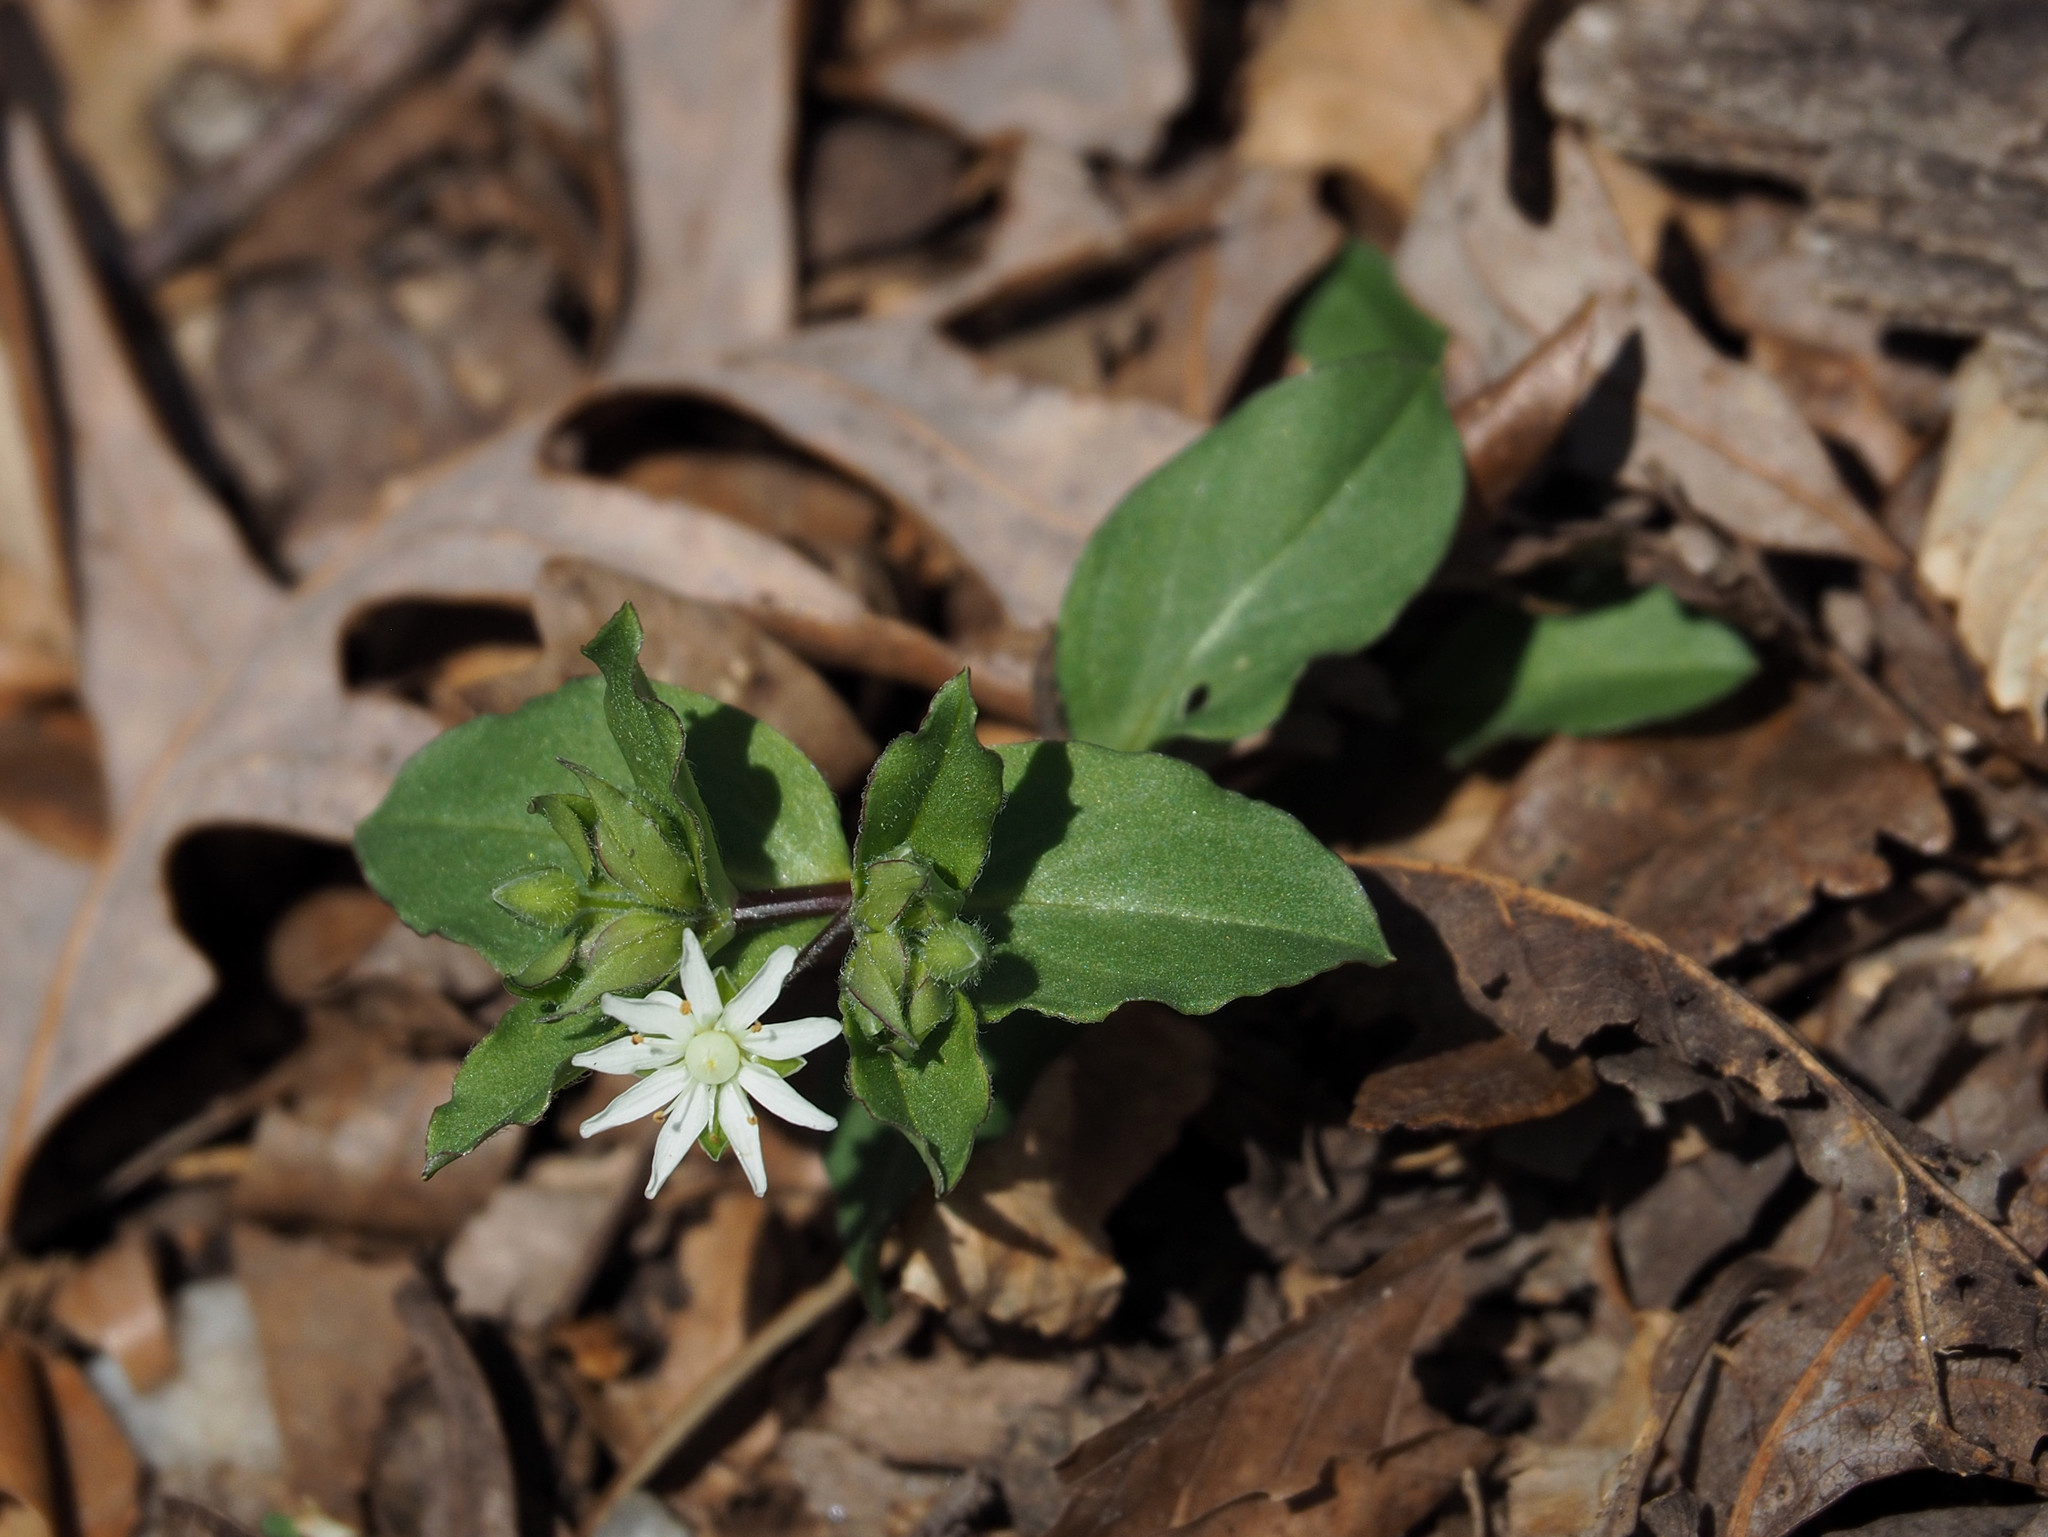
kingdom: Plantae
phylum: Tracheophyta
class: Magnoliopsida
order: Caryophyllales
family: Caryophyllaceae
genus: Stellaria
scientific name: Stellaria pubera
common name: Star chickweed
